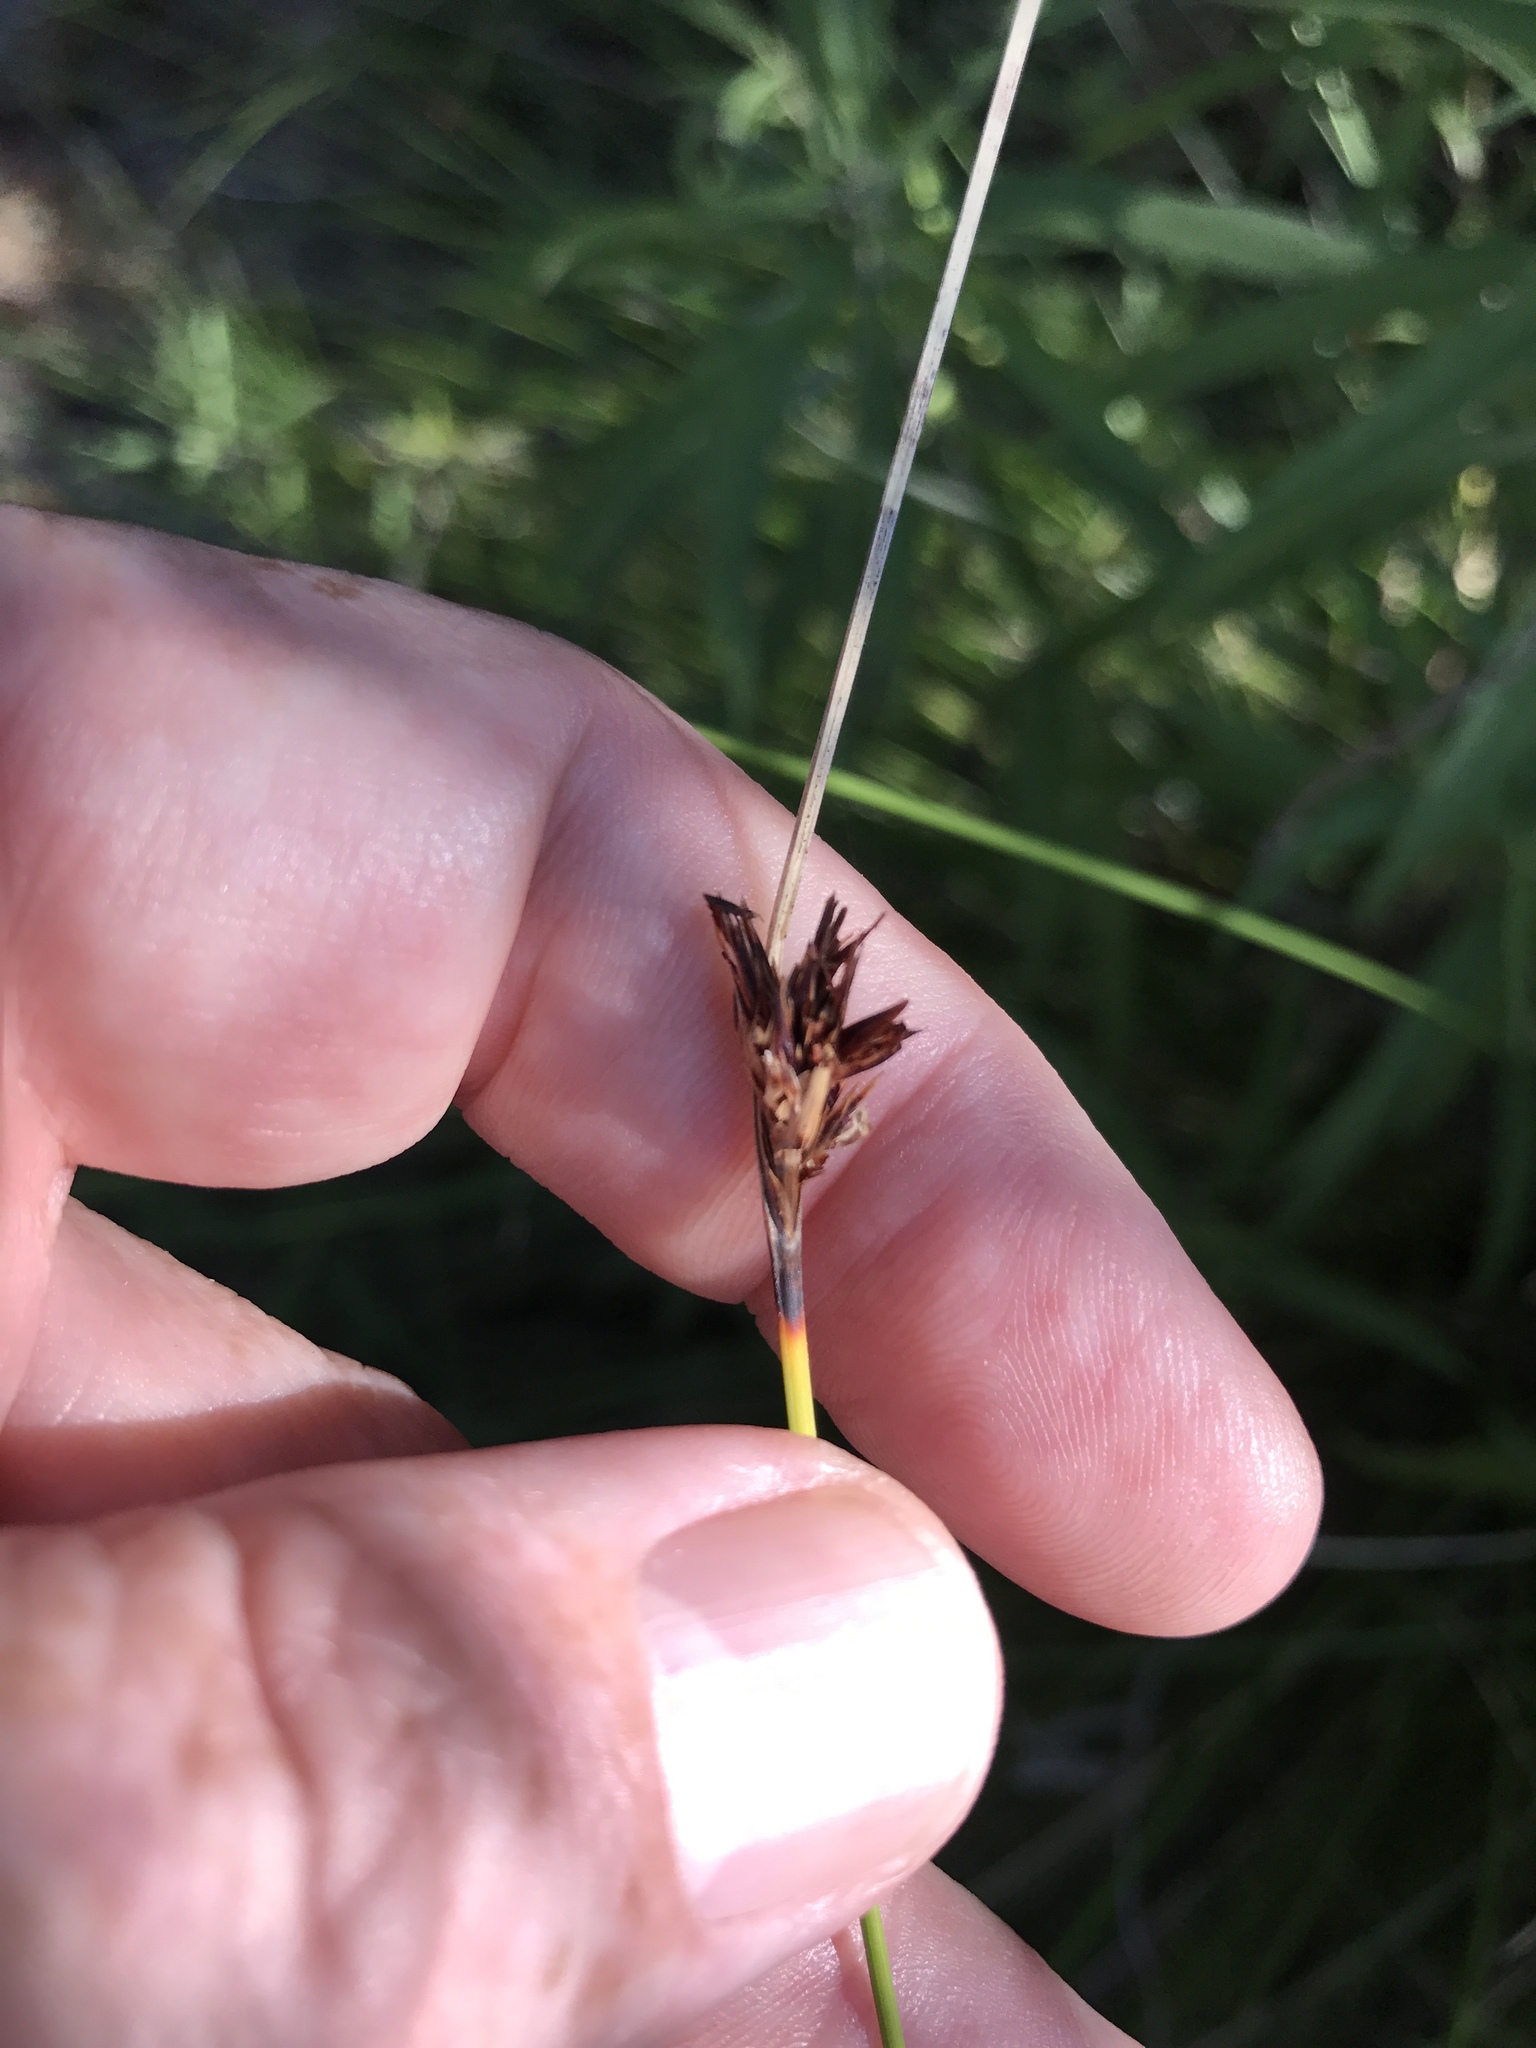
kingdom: Plantae
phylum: Tracheophyta
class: Liliopsida
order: Poales
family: Cyperaceae
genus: Schoenus
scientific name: Schoenus nigricans
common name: Black bog-rush
